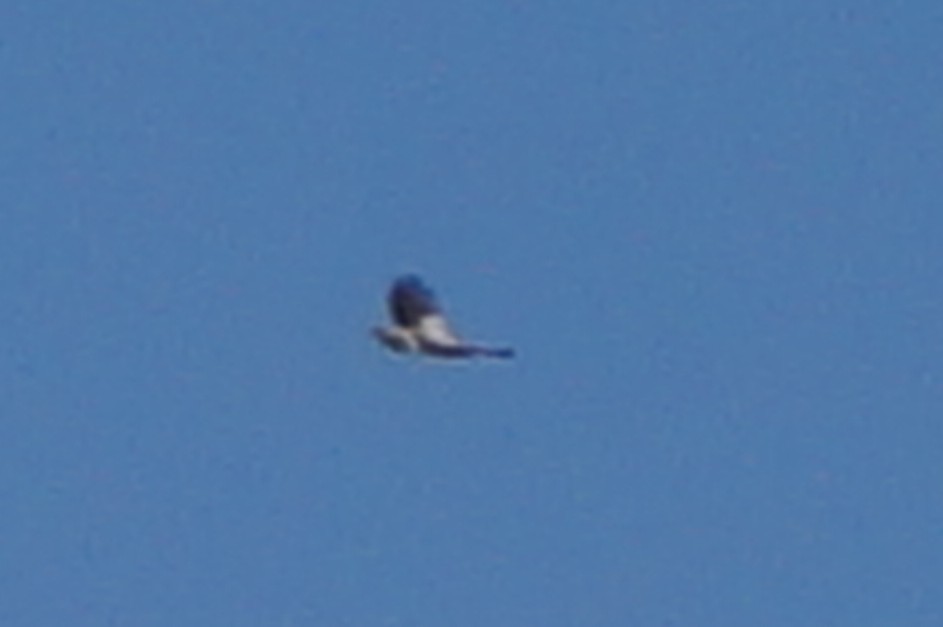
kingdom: Animalia
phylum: Chordata
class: Aves
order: Accipitriformes
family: Accipitridae
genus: Buteo
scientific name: Buteo buteo
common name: Common buzzard
